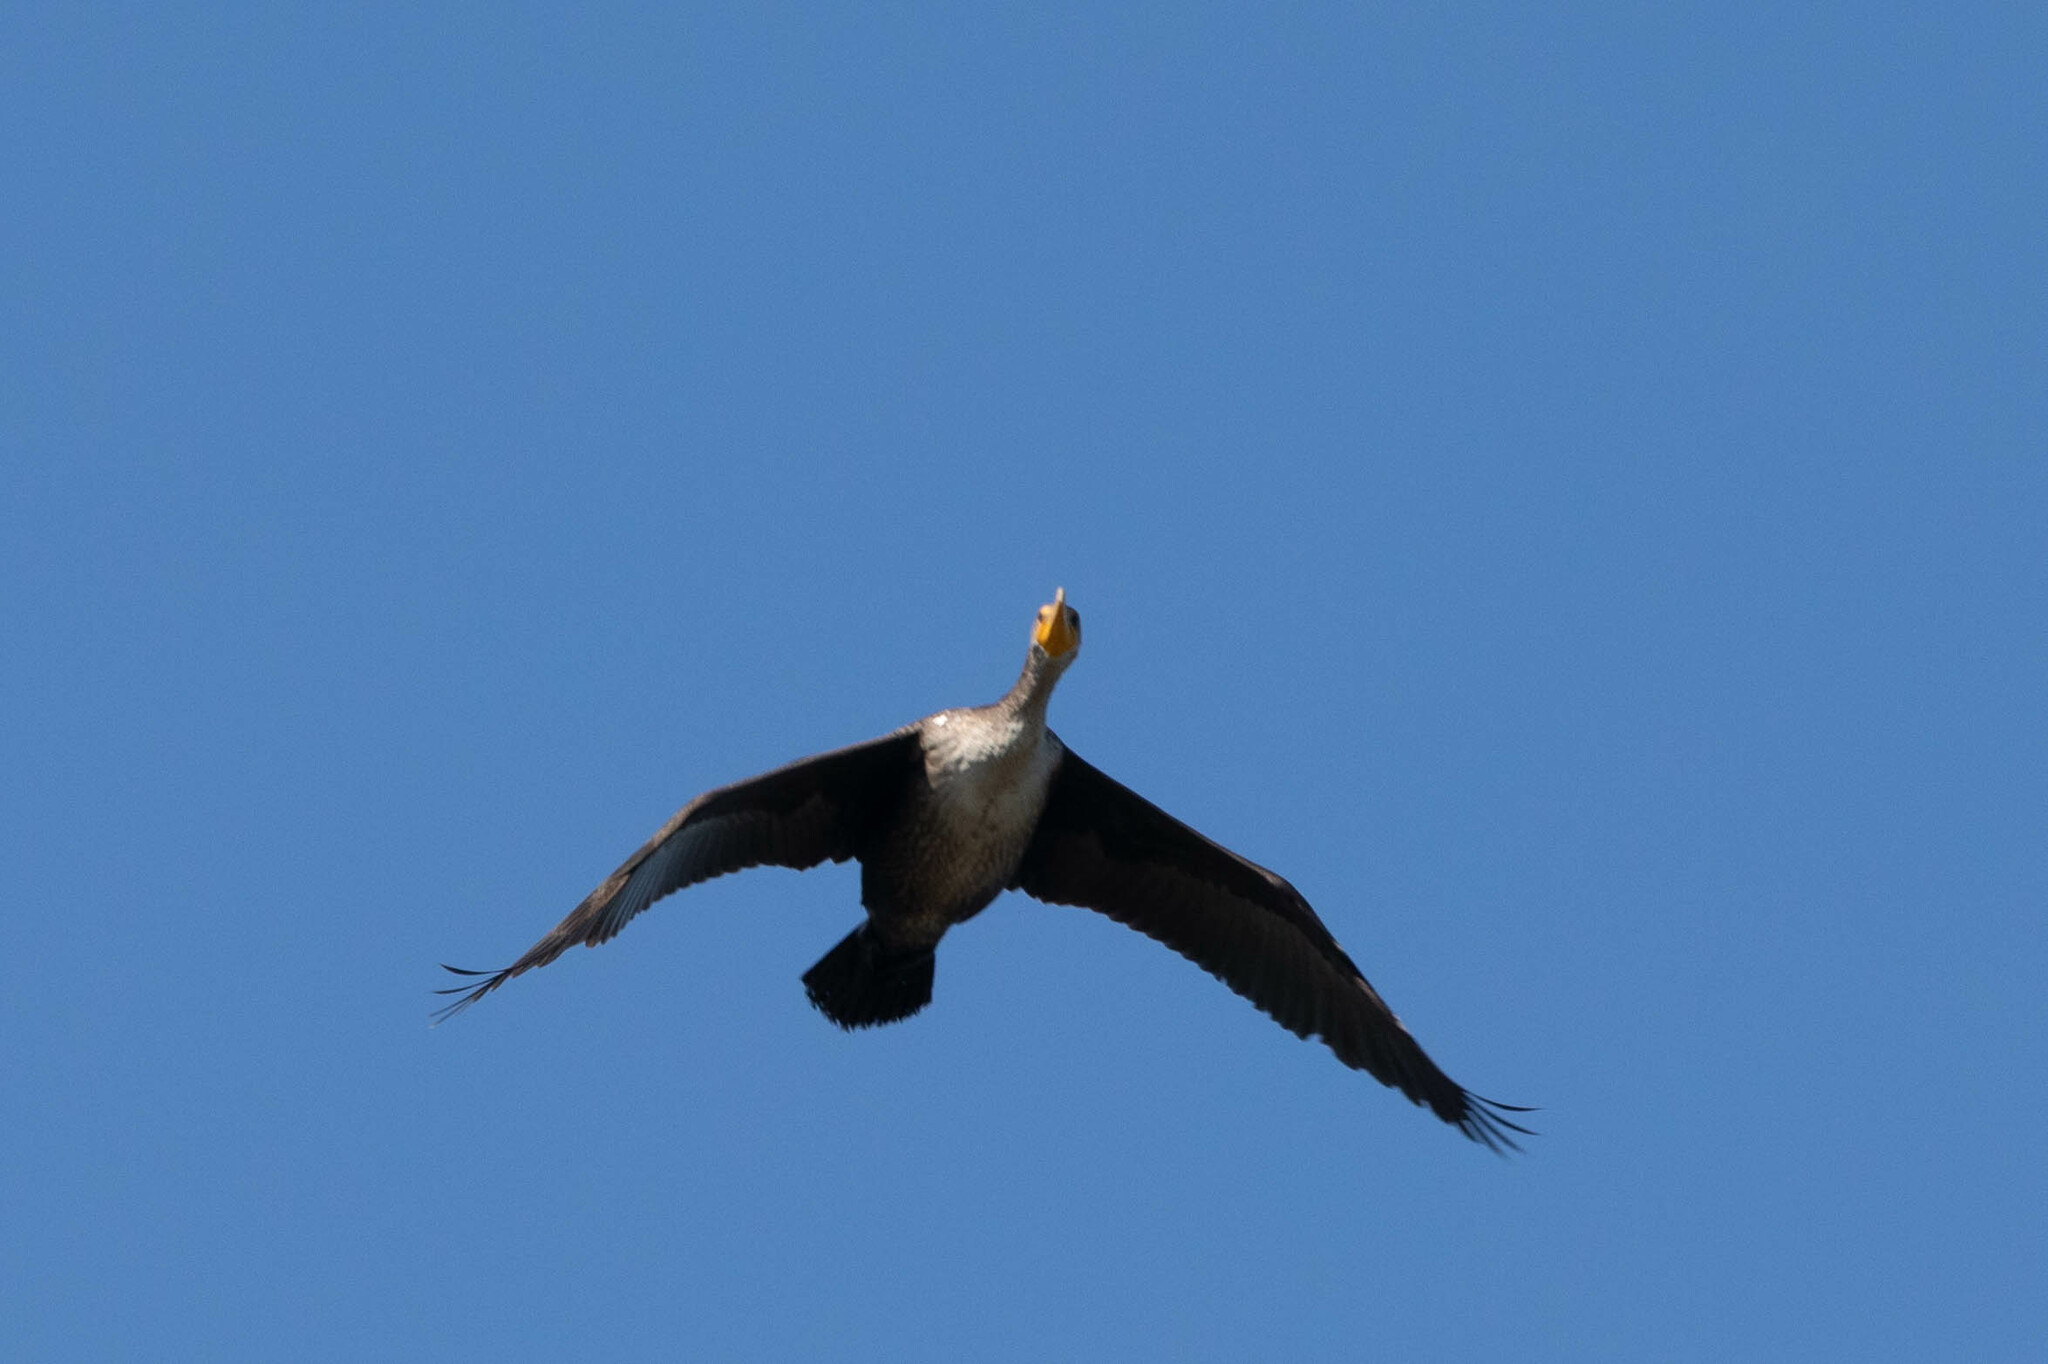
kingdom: Animalia
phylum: Chordata
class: Aves
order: Suliformes
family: Phalacrocoracidae
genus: Phalacrocorax
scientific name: Phalacrocorax auritus
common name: Double-crested cormorant
